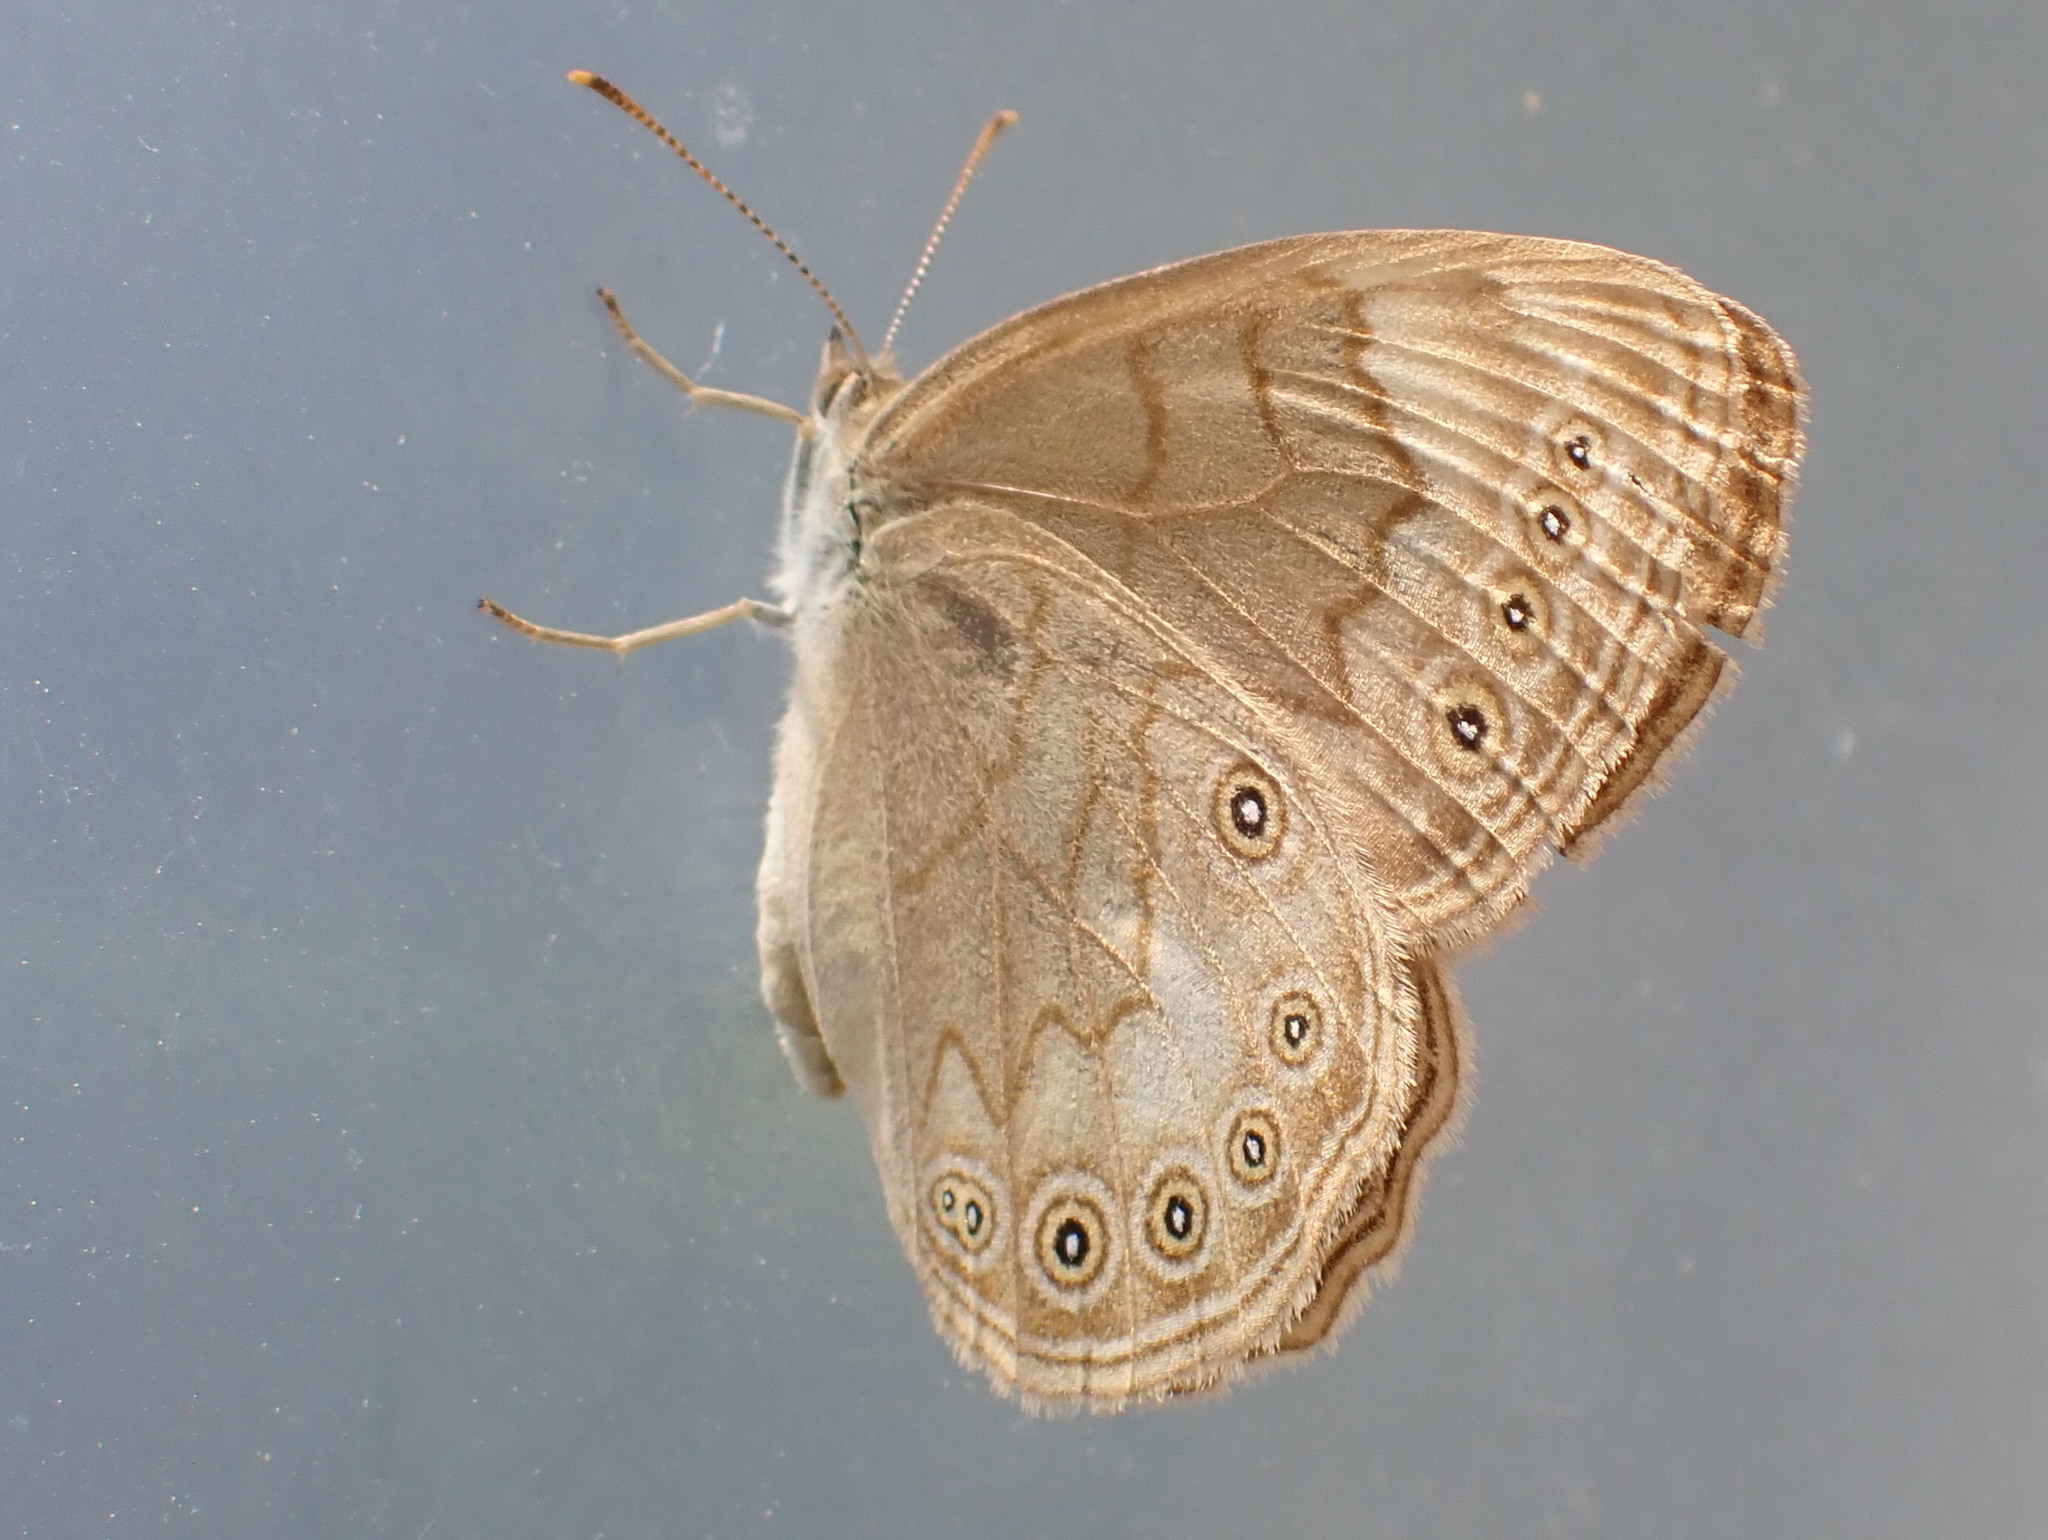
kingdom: Animalia
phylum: Arthropoda
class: Insecta
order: Lepidoptera
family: Nymphalidae
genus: Lethe
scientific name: Lethe eurydice
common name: Eyed brown
